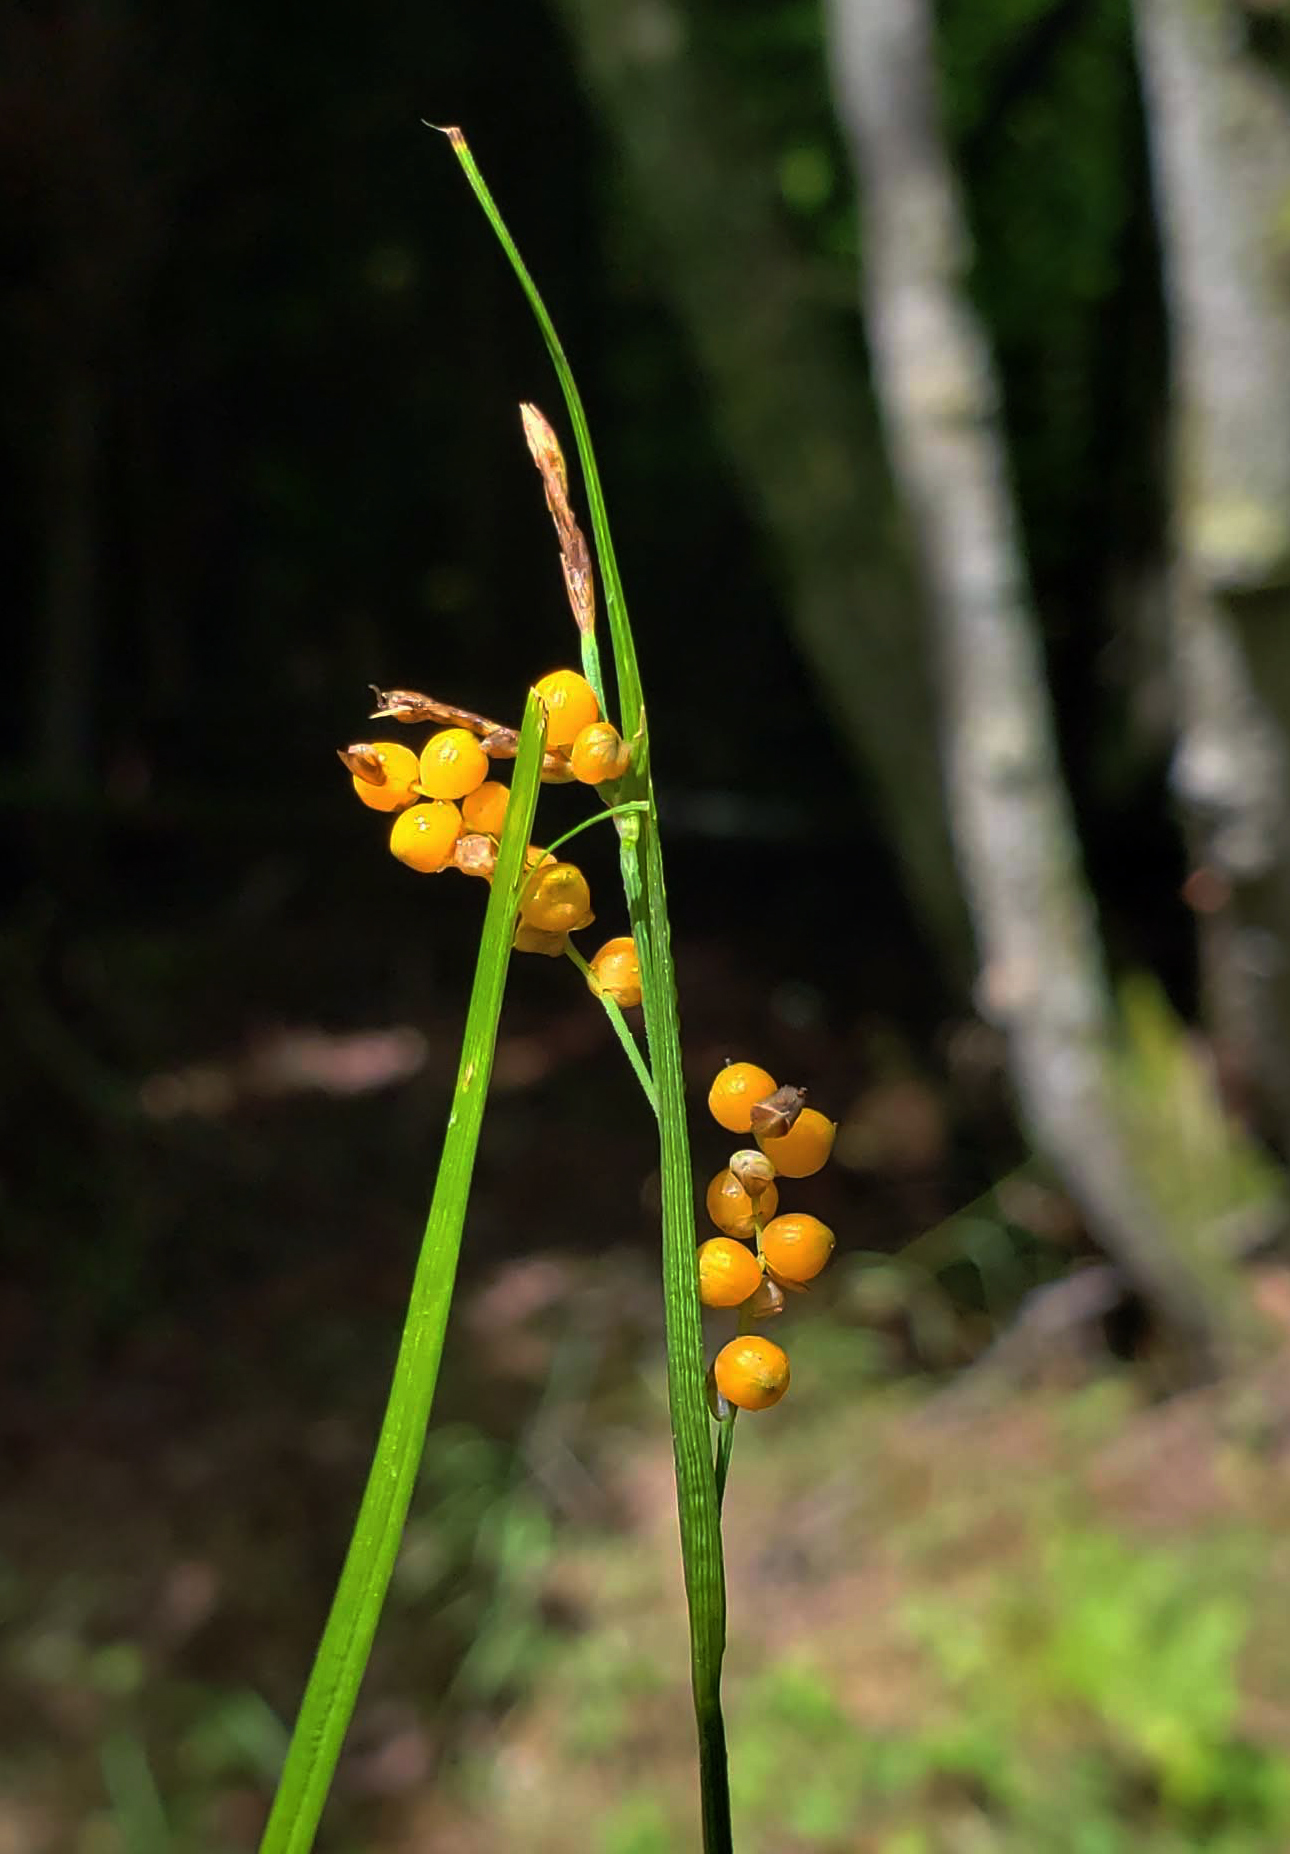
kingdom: Plantae
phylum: Tracheophyta
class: Liliopsida
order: Poales
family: Cyperaceae
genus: Carex
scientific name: Carex aurea
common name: Golden sedge
